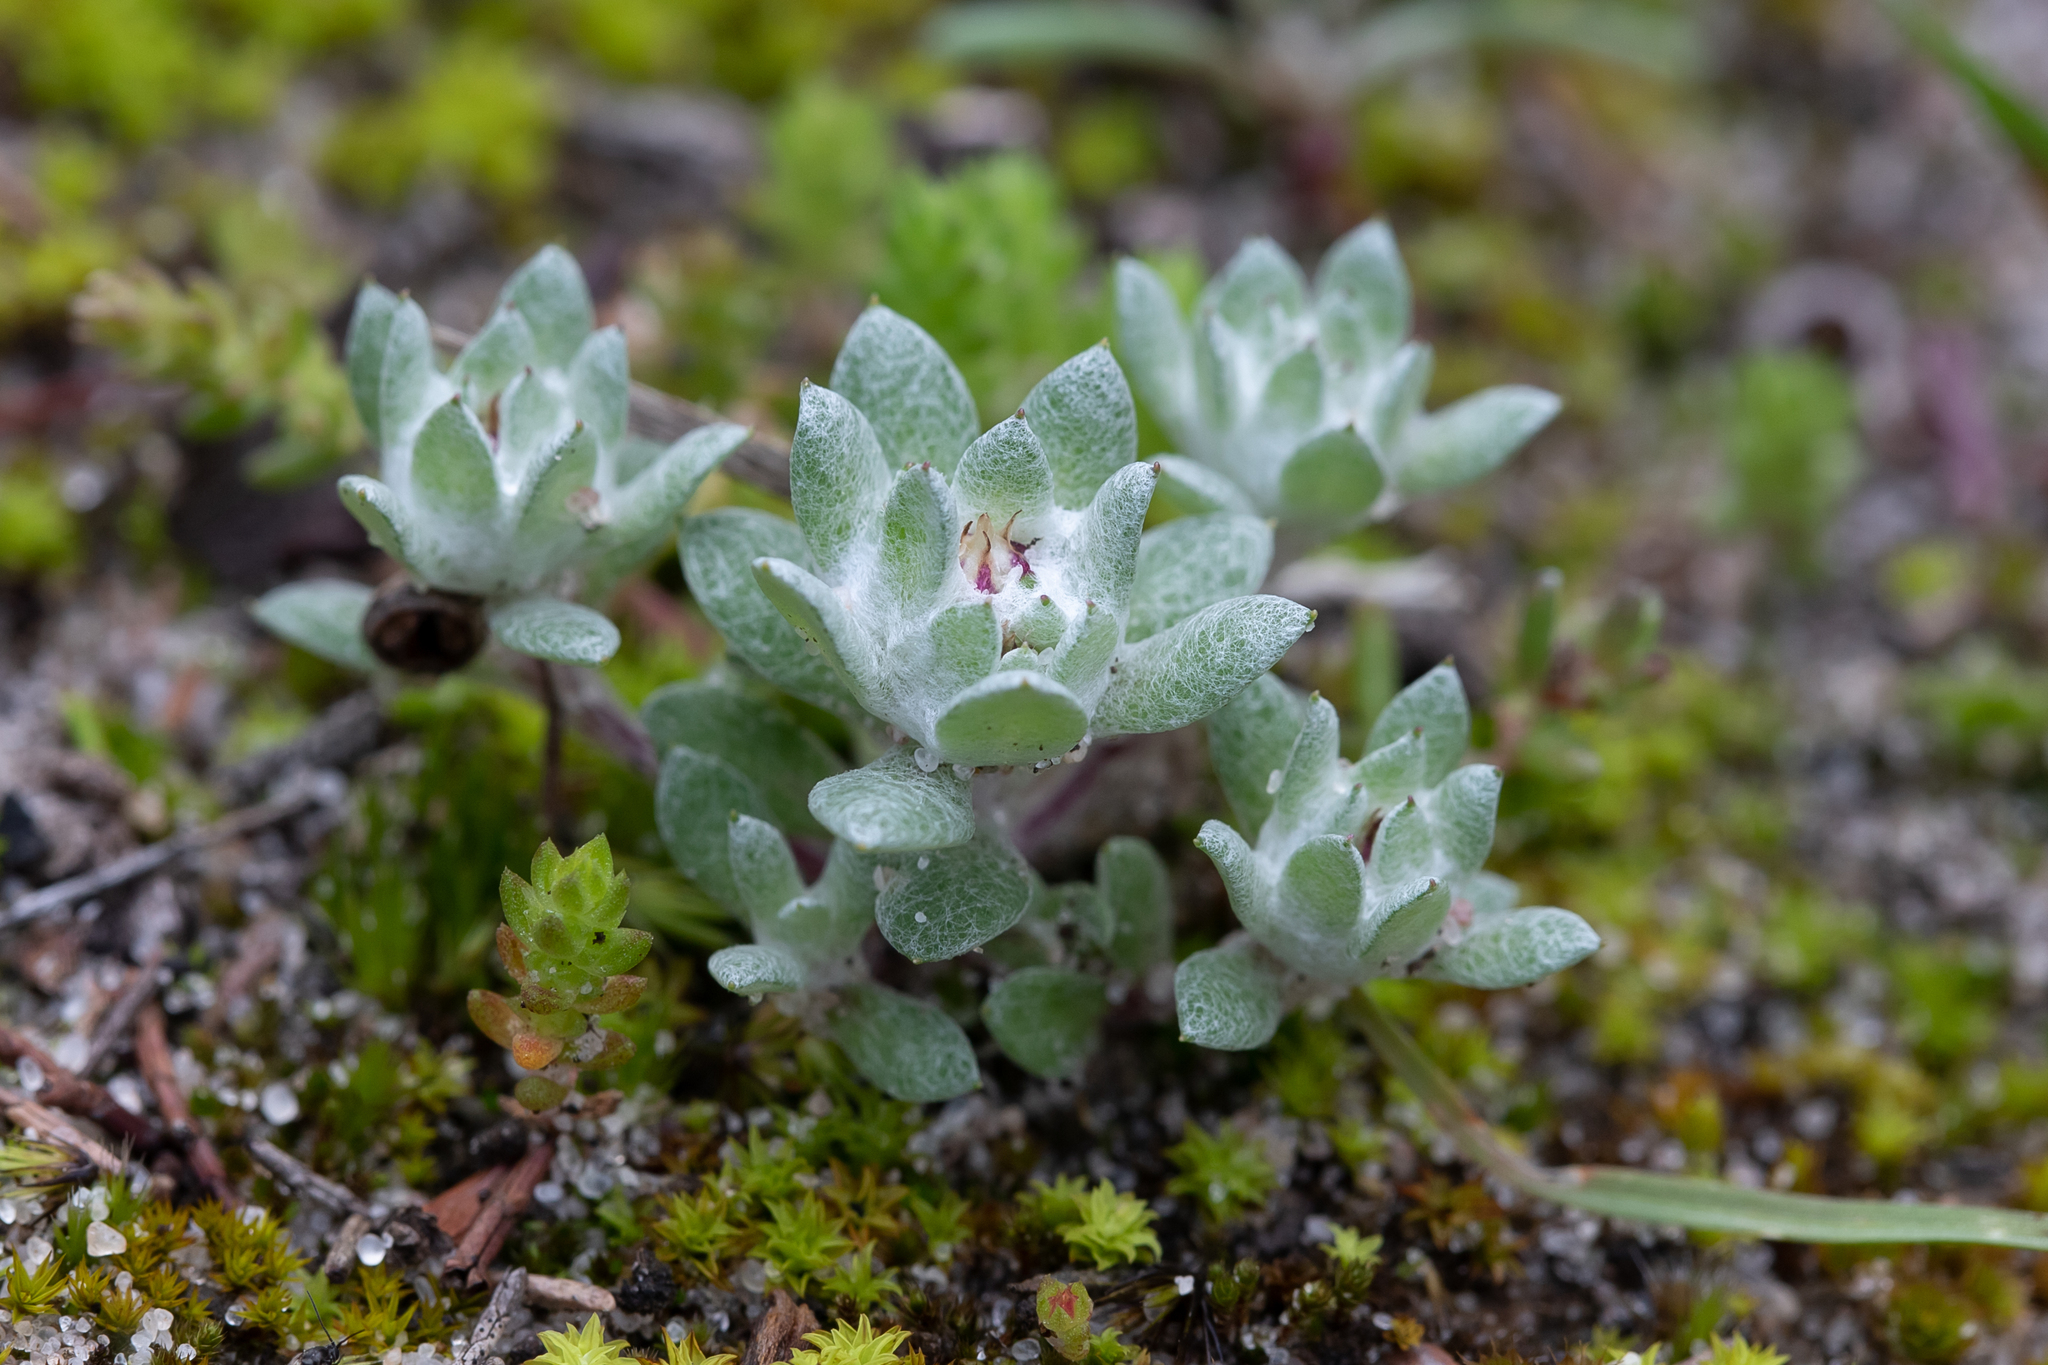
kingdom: Plantae
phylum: Tracheophyta
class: Magnoliopsida
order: Asterales
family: Asteraceae
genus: Actinobole
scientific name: Actinobole uliginosum
